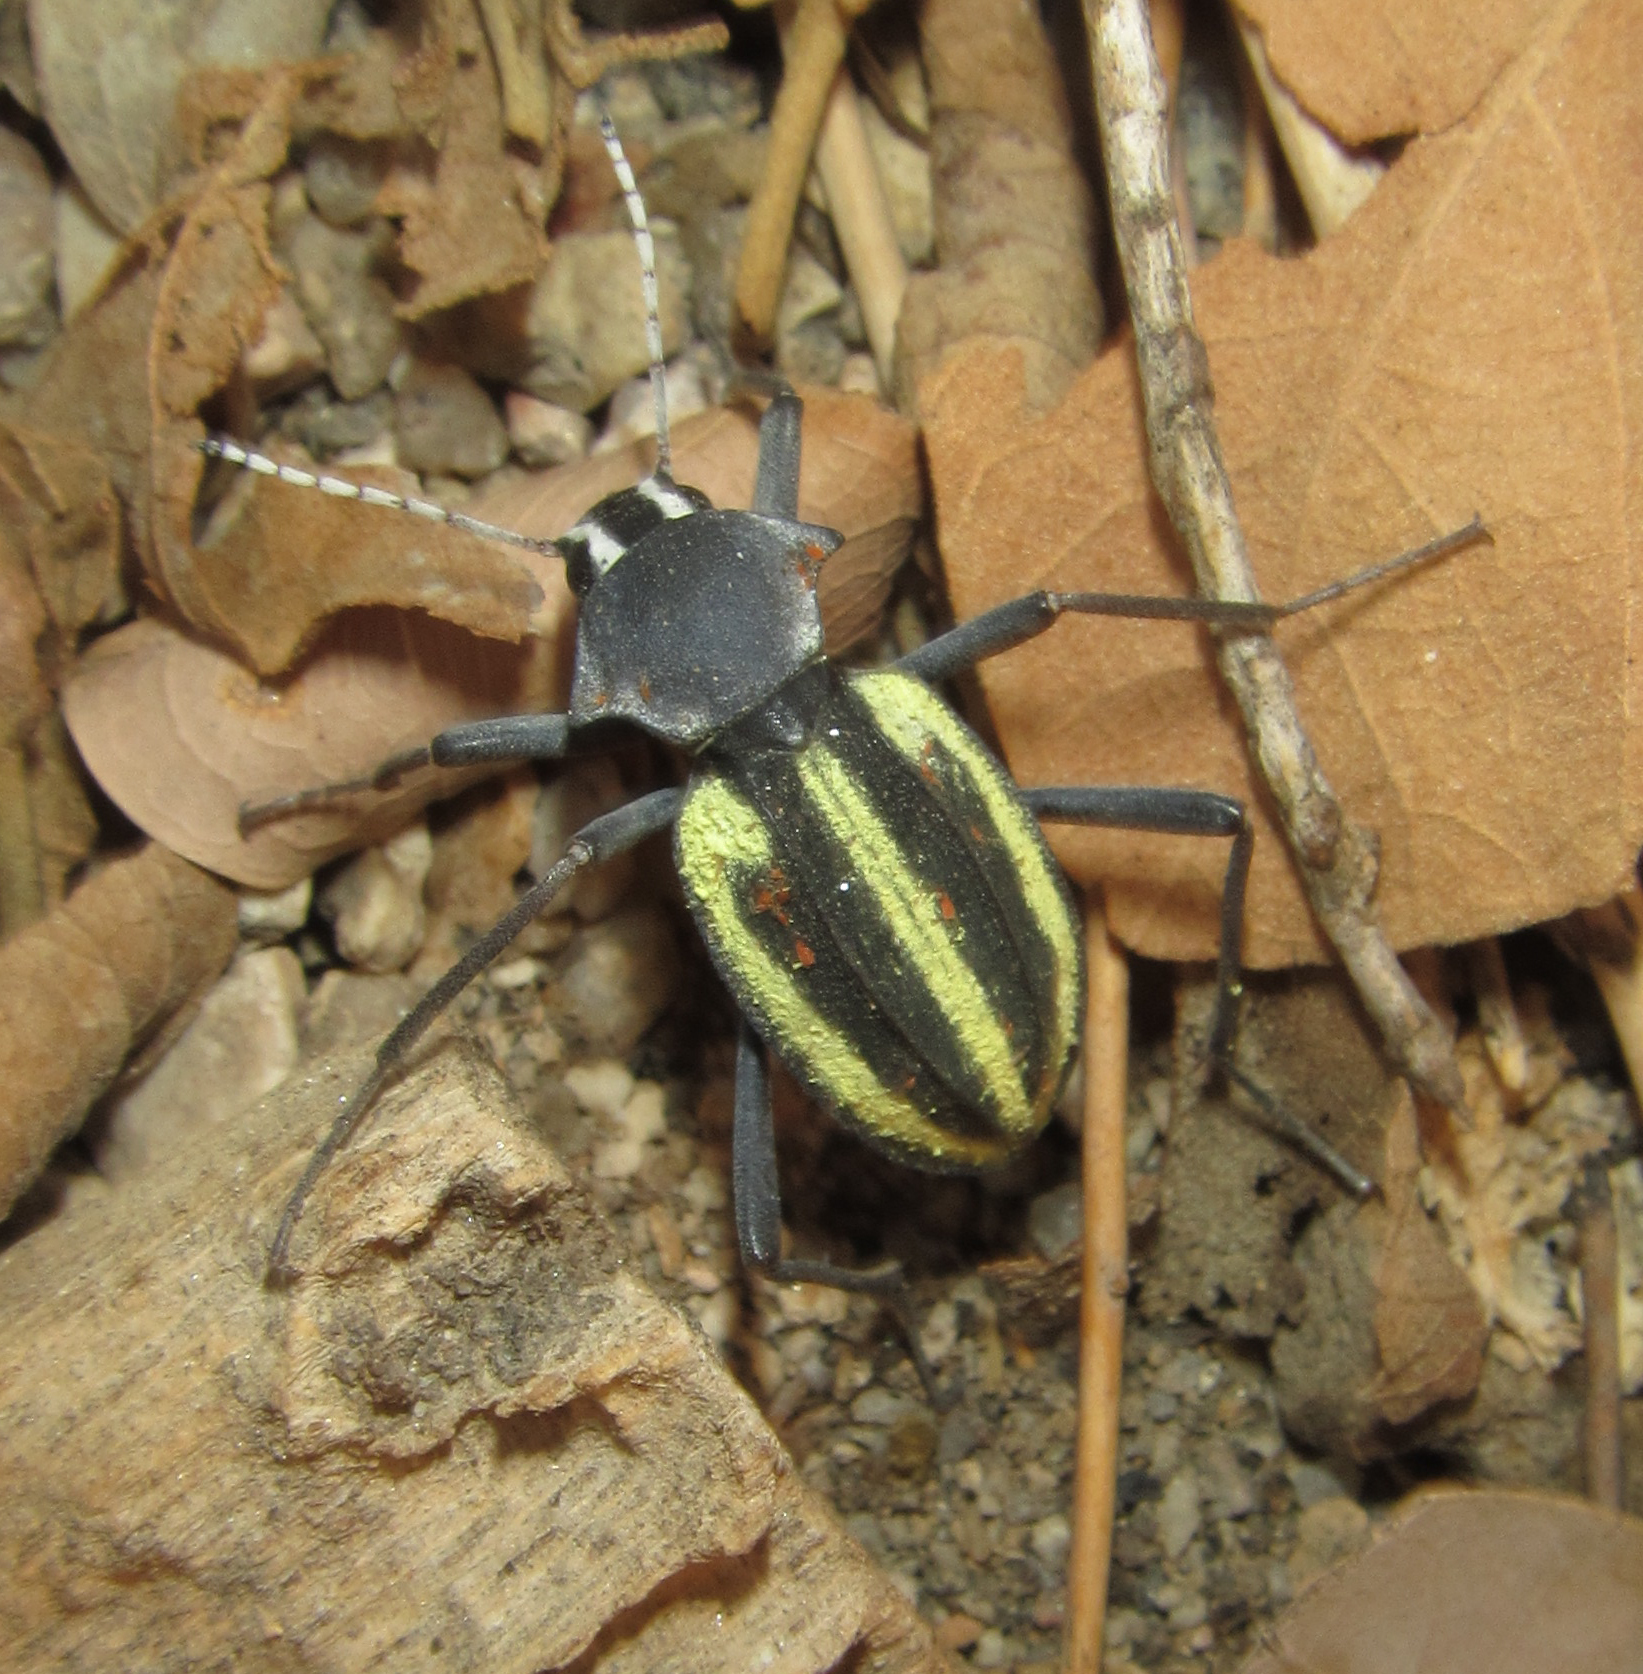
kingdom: Animalia
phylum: Arthropoda
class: Insecta
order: Coleoptera
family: Tenebrionidae
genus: Somaticus
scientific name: Somaticus bohemani
